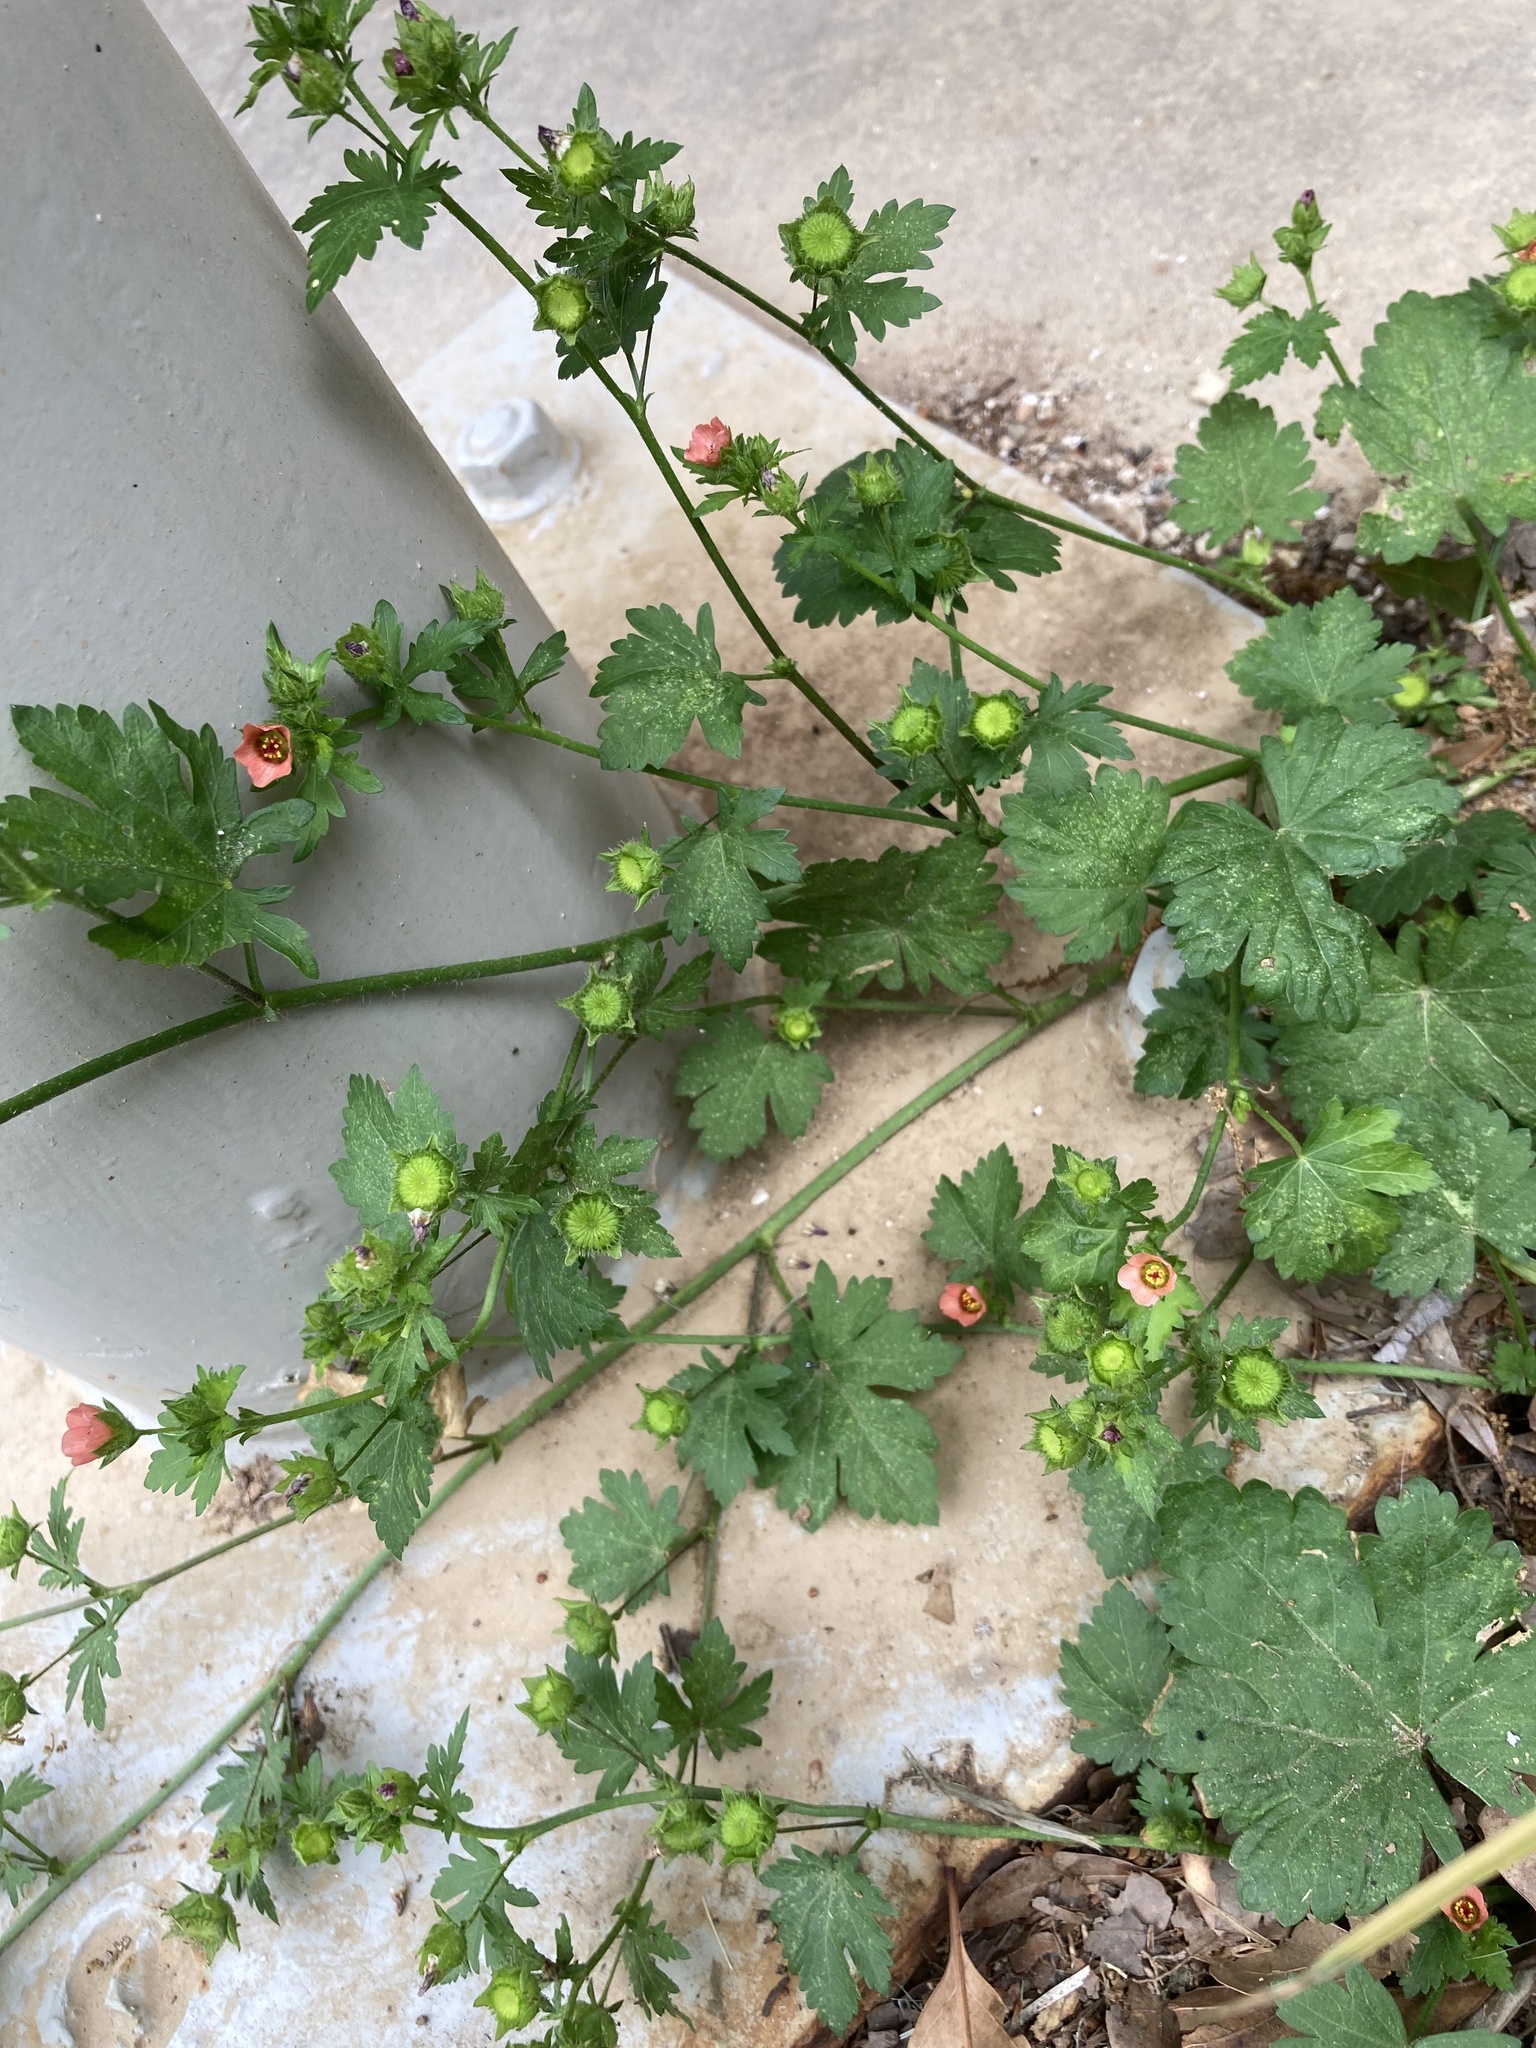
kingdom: Plantae
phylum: Tracheophyta
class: Magnoliopsida
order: Malvales
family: Malvaceae
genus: Modiola
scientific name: Modiola caroliniana
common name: Carolina bristlemallow
